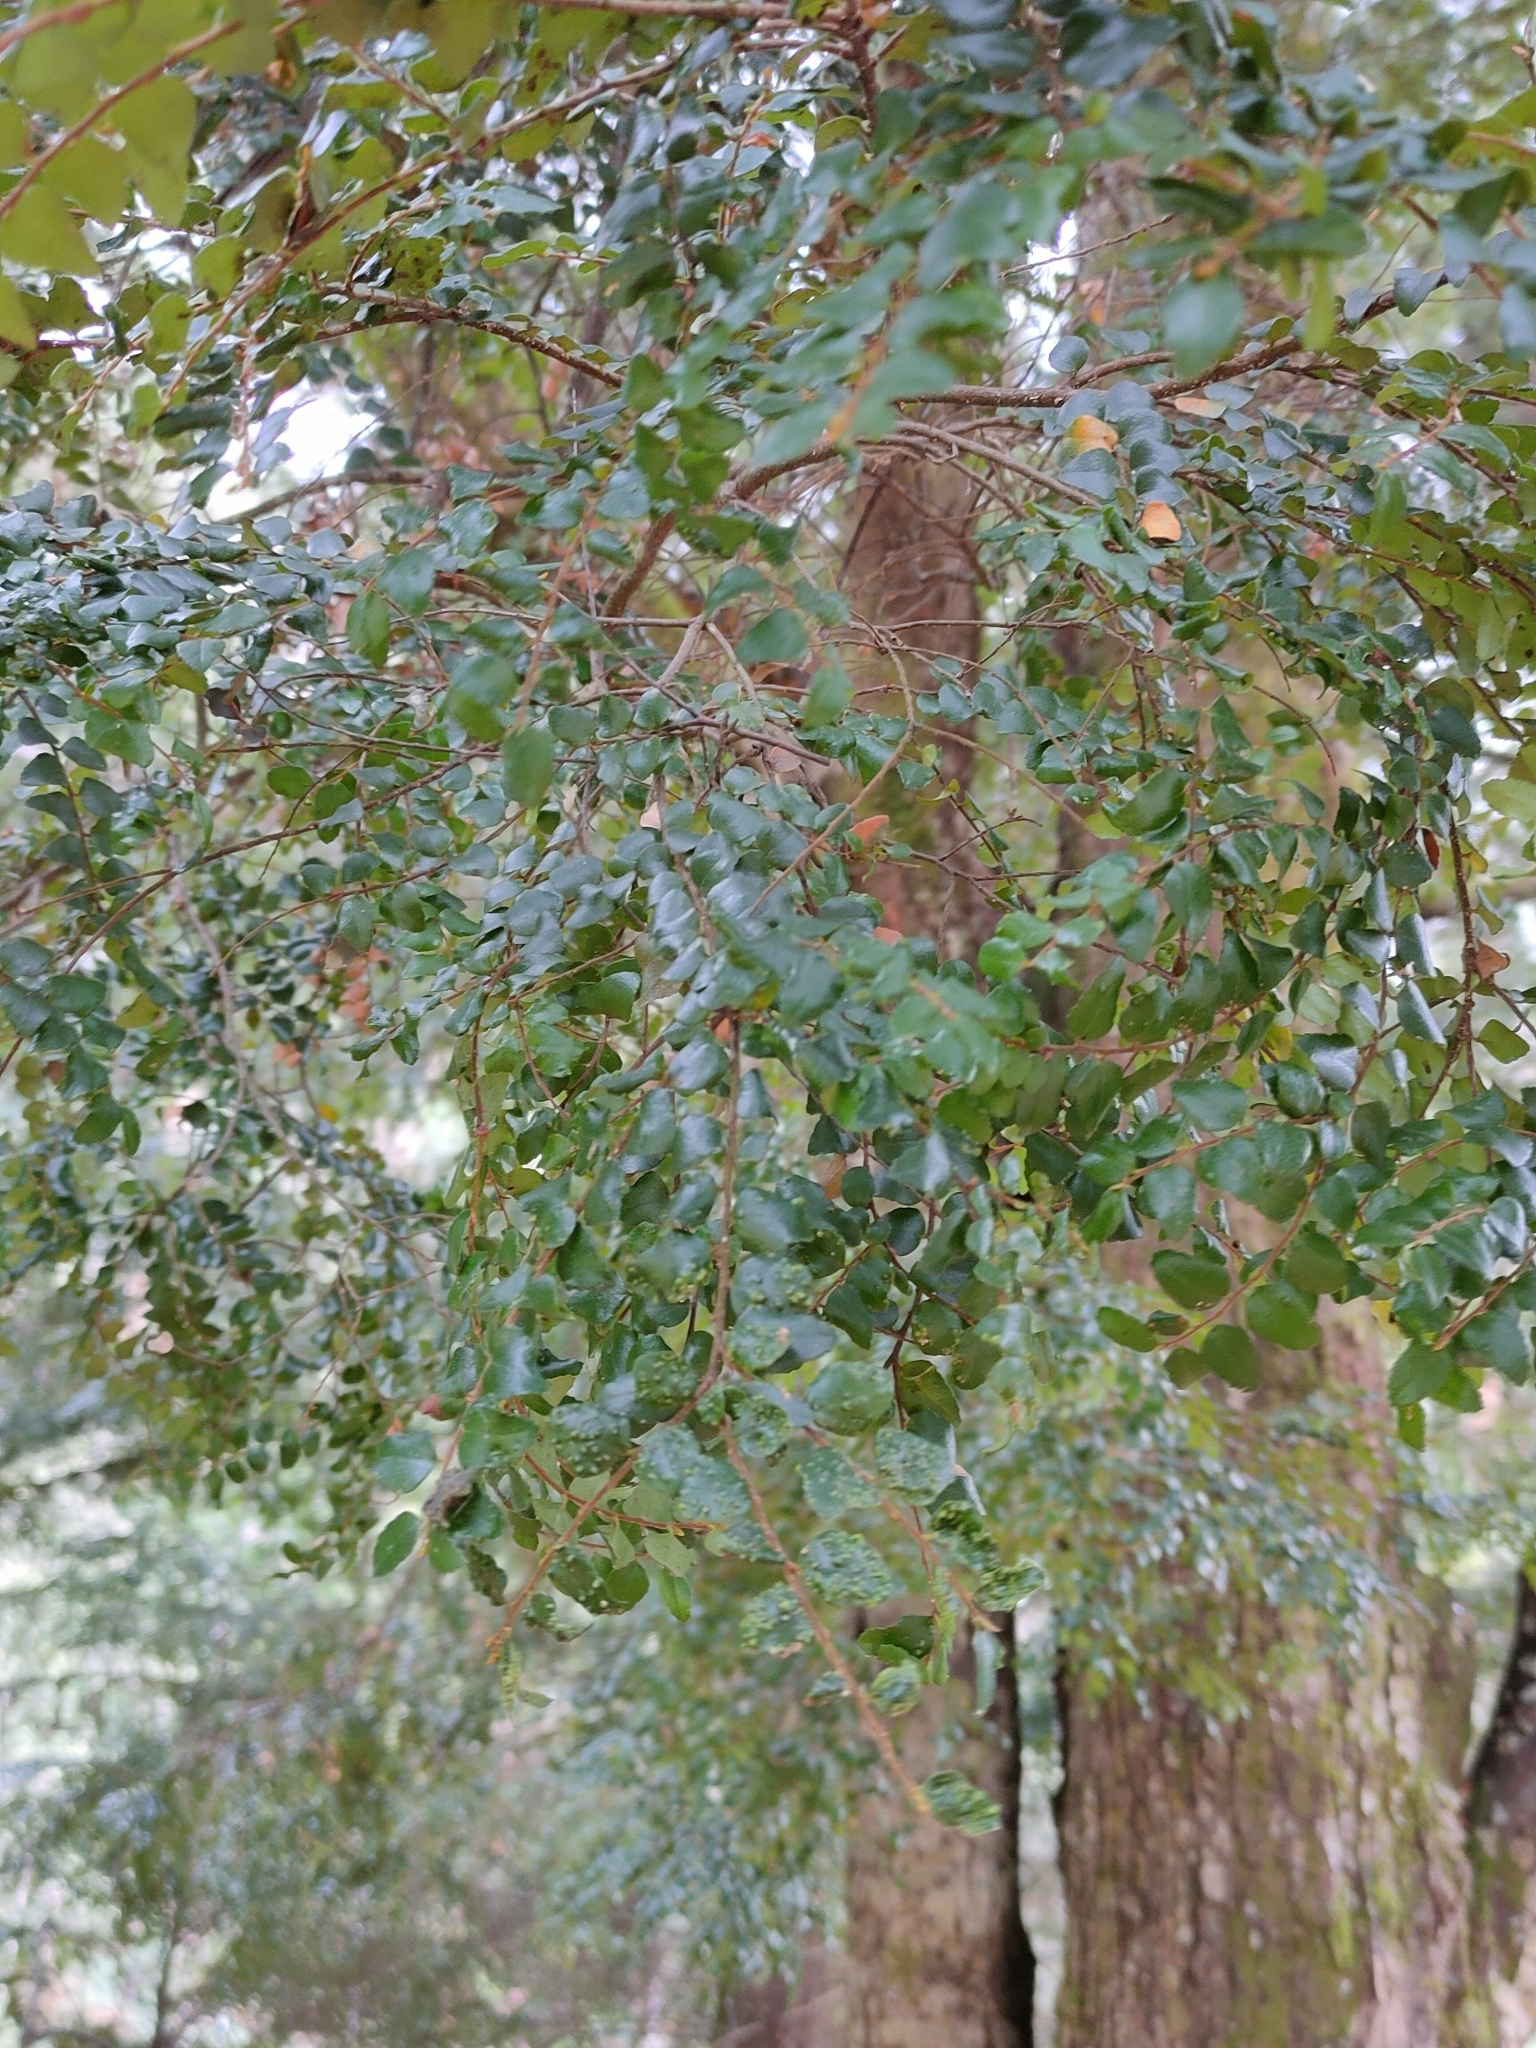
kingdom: Plantae
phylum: Tracheophyta
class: Magnoliopsida
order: Fagales
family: Nothofagaceae
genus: Nothofagus
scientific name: Nothofagus cunninghamii
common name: Myrtle beech
